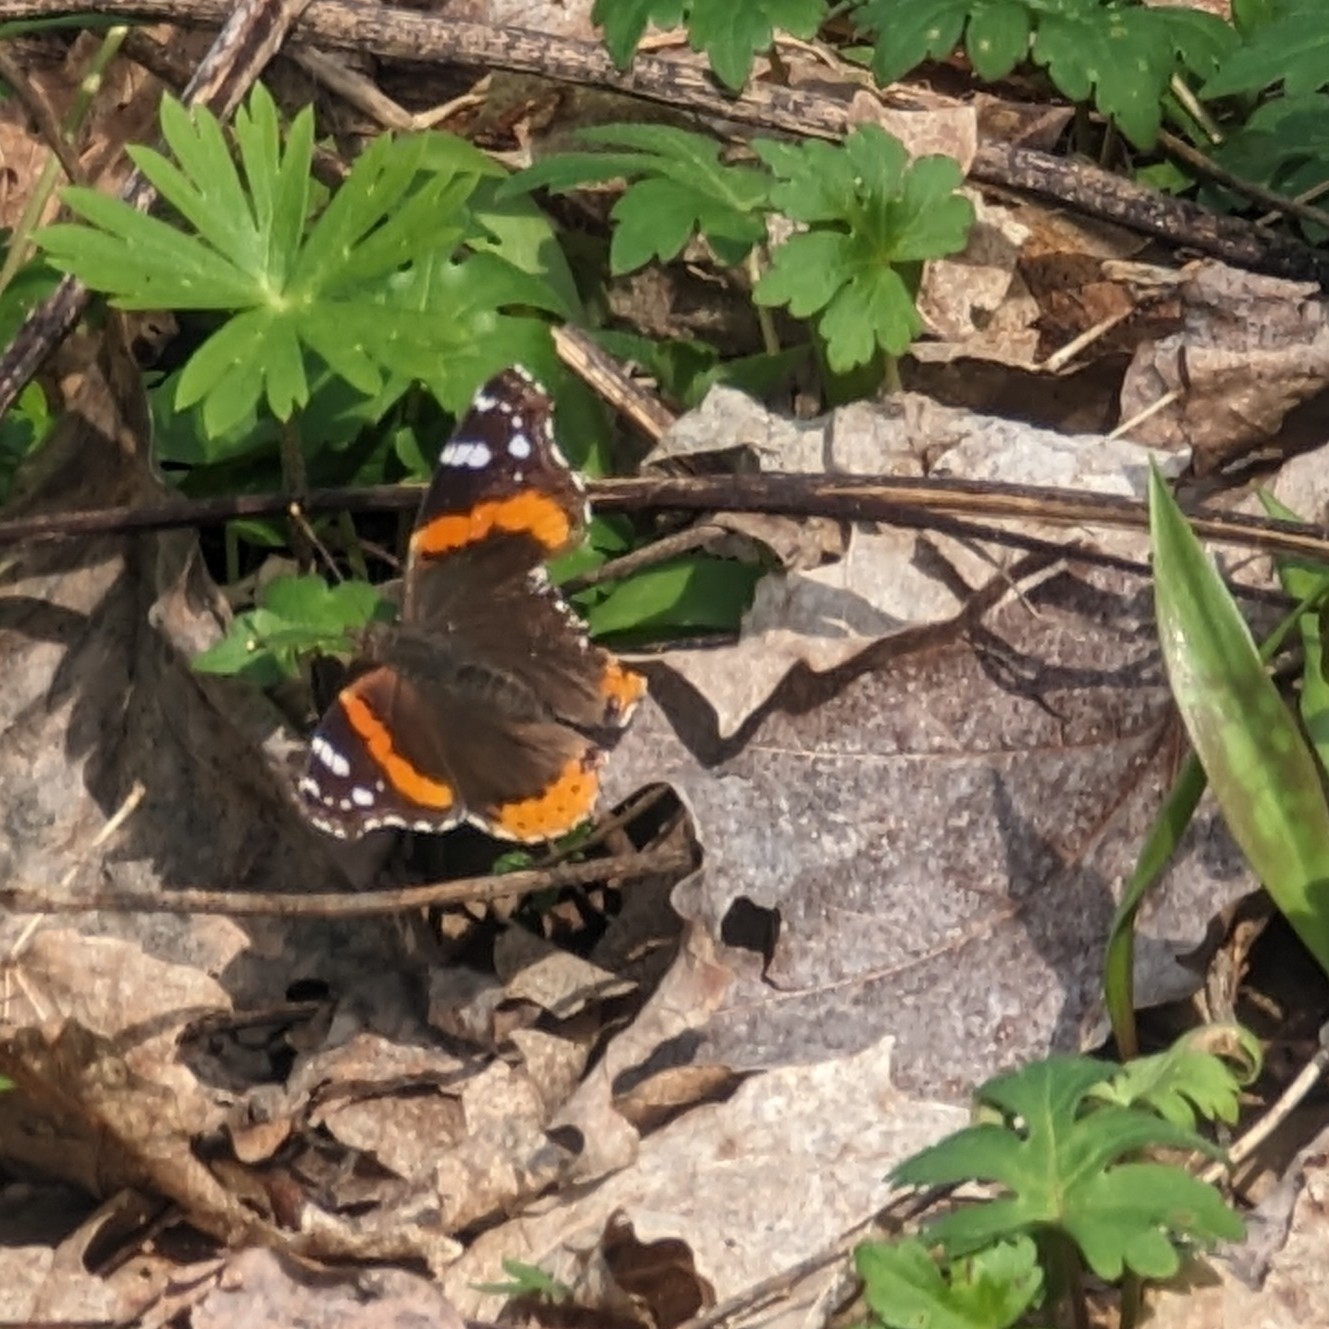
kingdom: Animalia
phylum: Arthropoda
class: Insecta
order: Lepidoptera
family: Nymphalidae
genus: Vanessa
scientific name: Vanessa atalanta
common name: Red admiral
